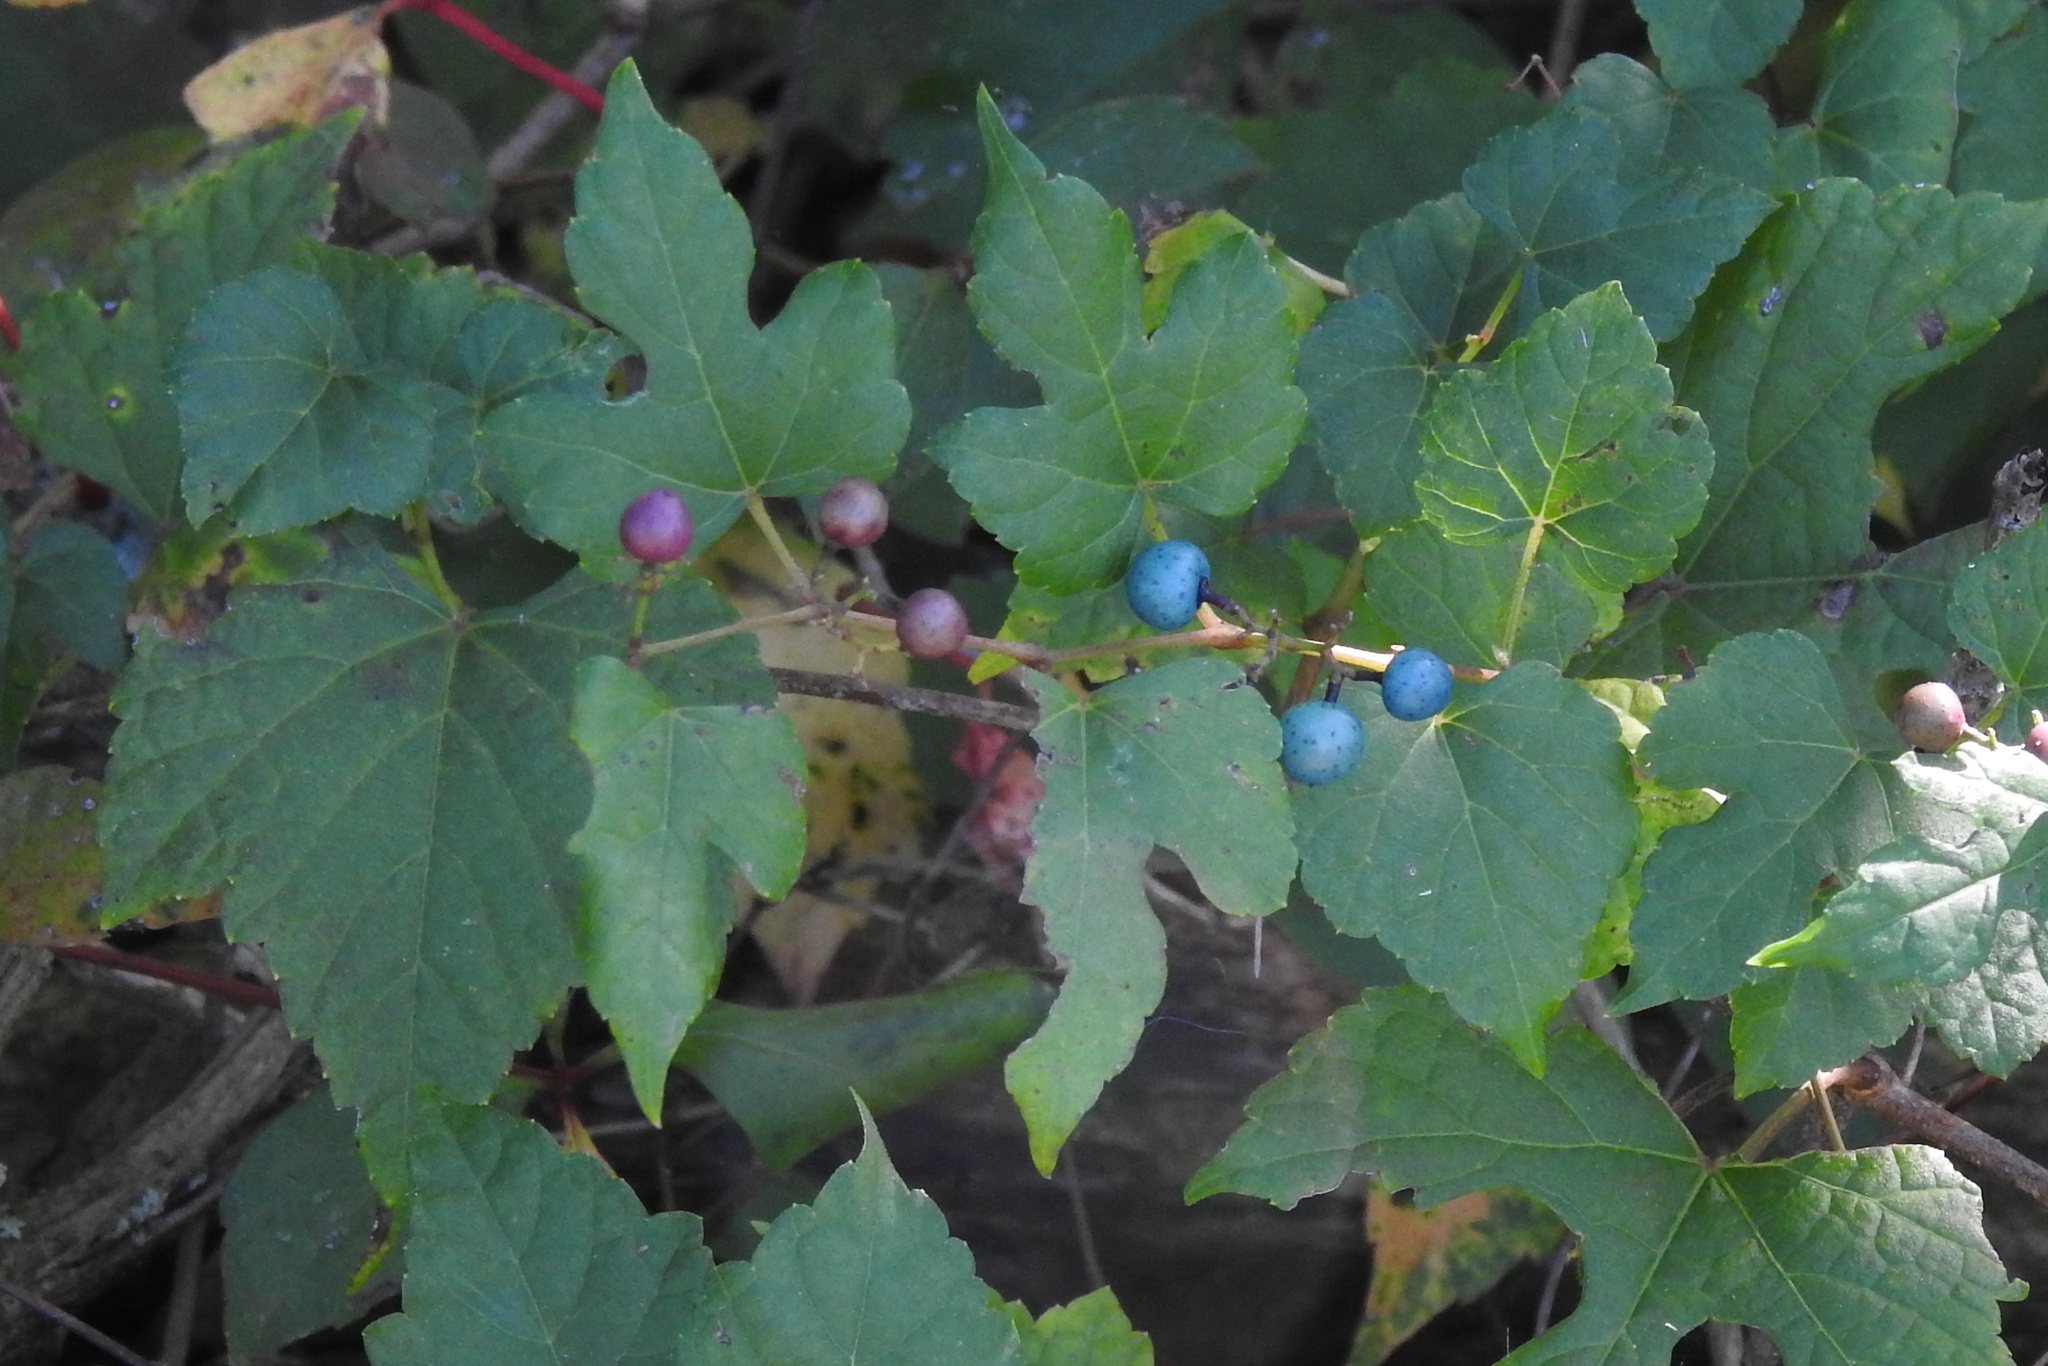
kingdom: Plantae
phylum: Tracheophyta
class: Magnoliopsida
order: Vitales
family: Vitaceae
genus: Ampelopsis
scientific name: Ampelopsis glandulosa
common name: Amur peppervine
